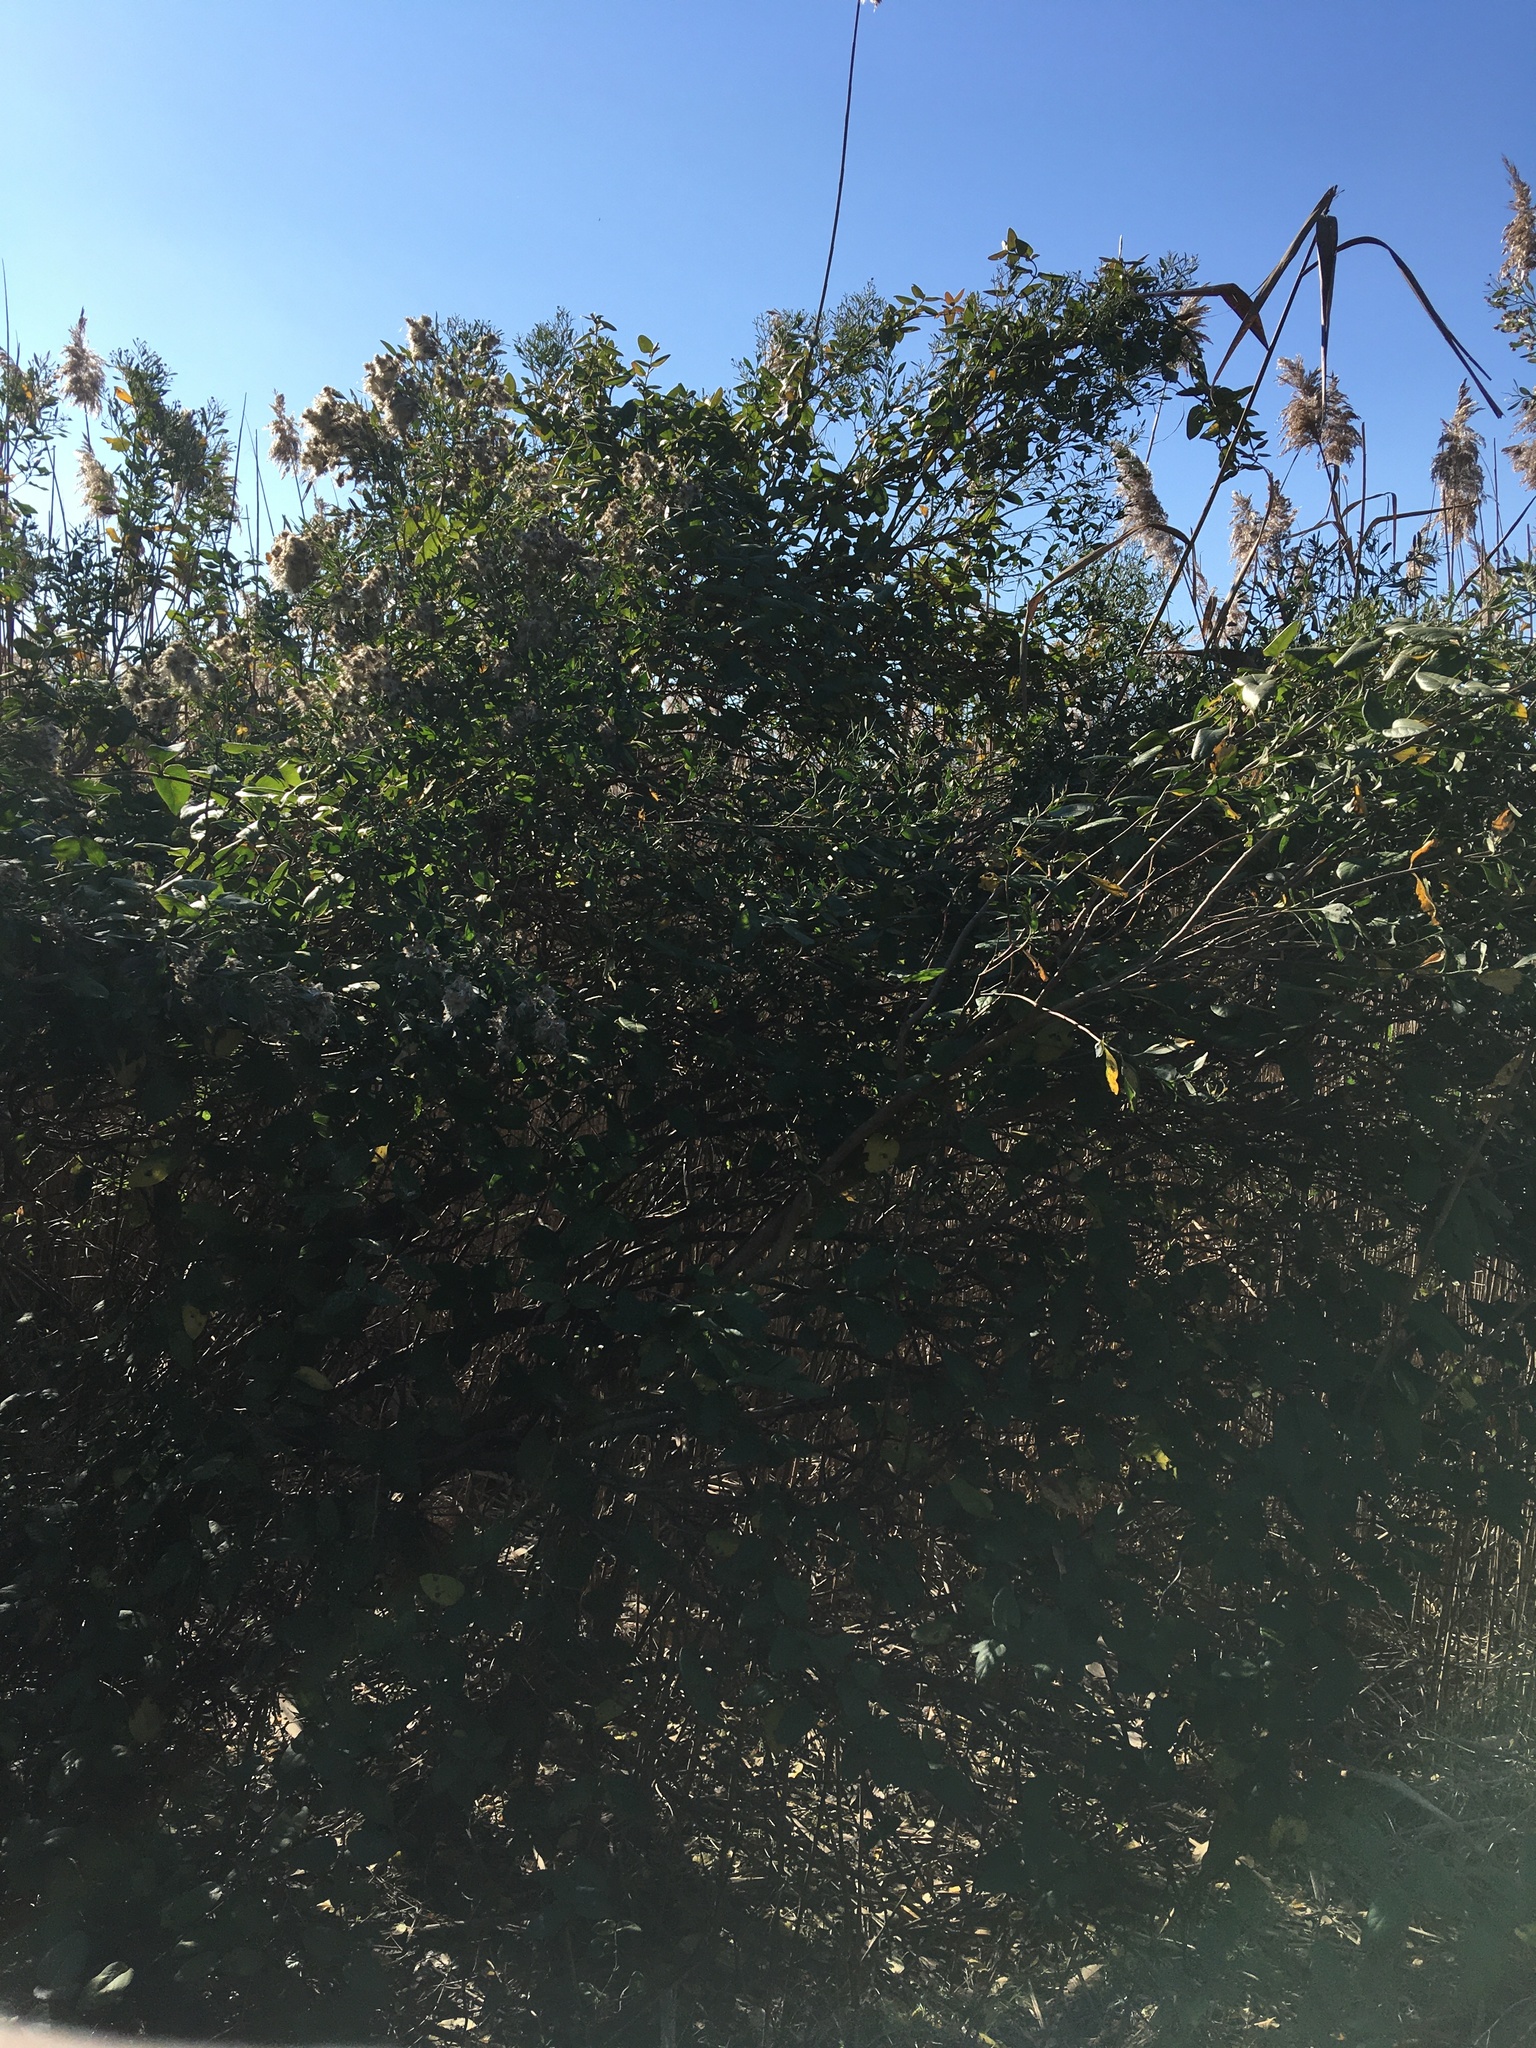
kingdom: Plantae
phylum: Tracheophyta
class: Magnoliopsida
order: Asterales
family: Asteraceae
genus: Baccharis
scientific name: Baccharis halimifolia
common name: Eastern baccharis
